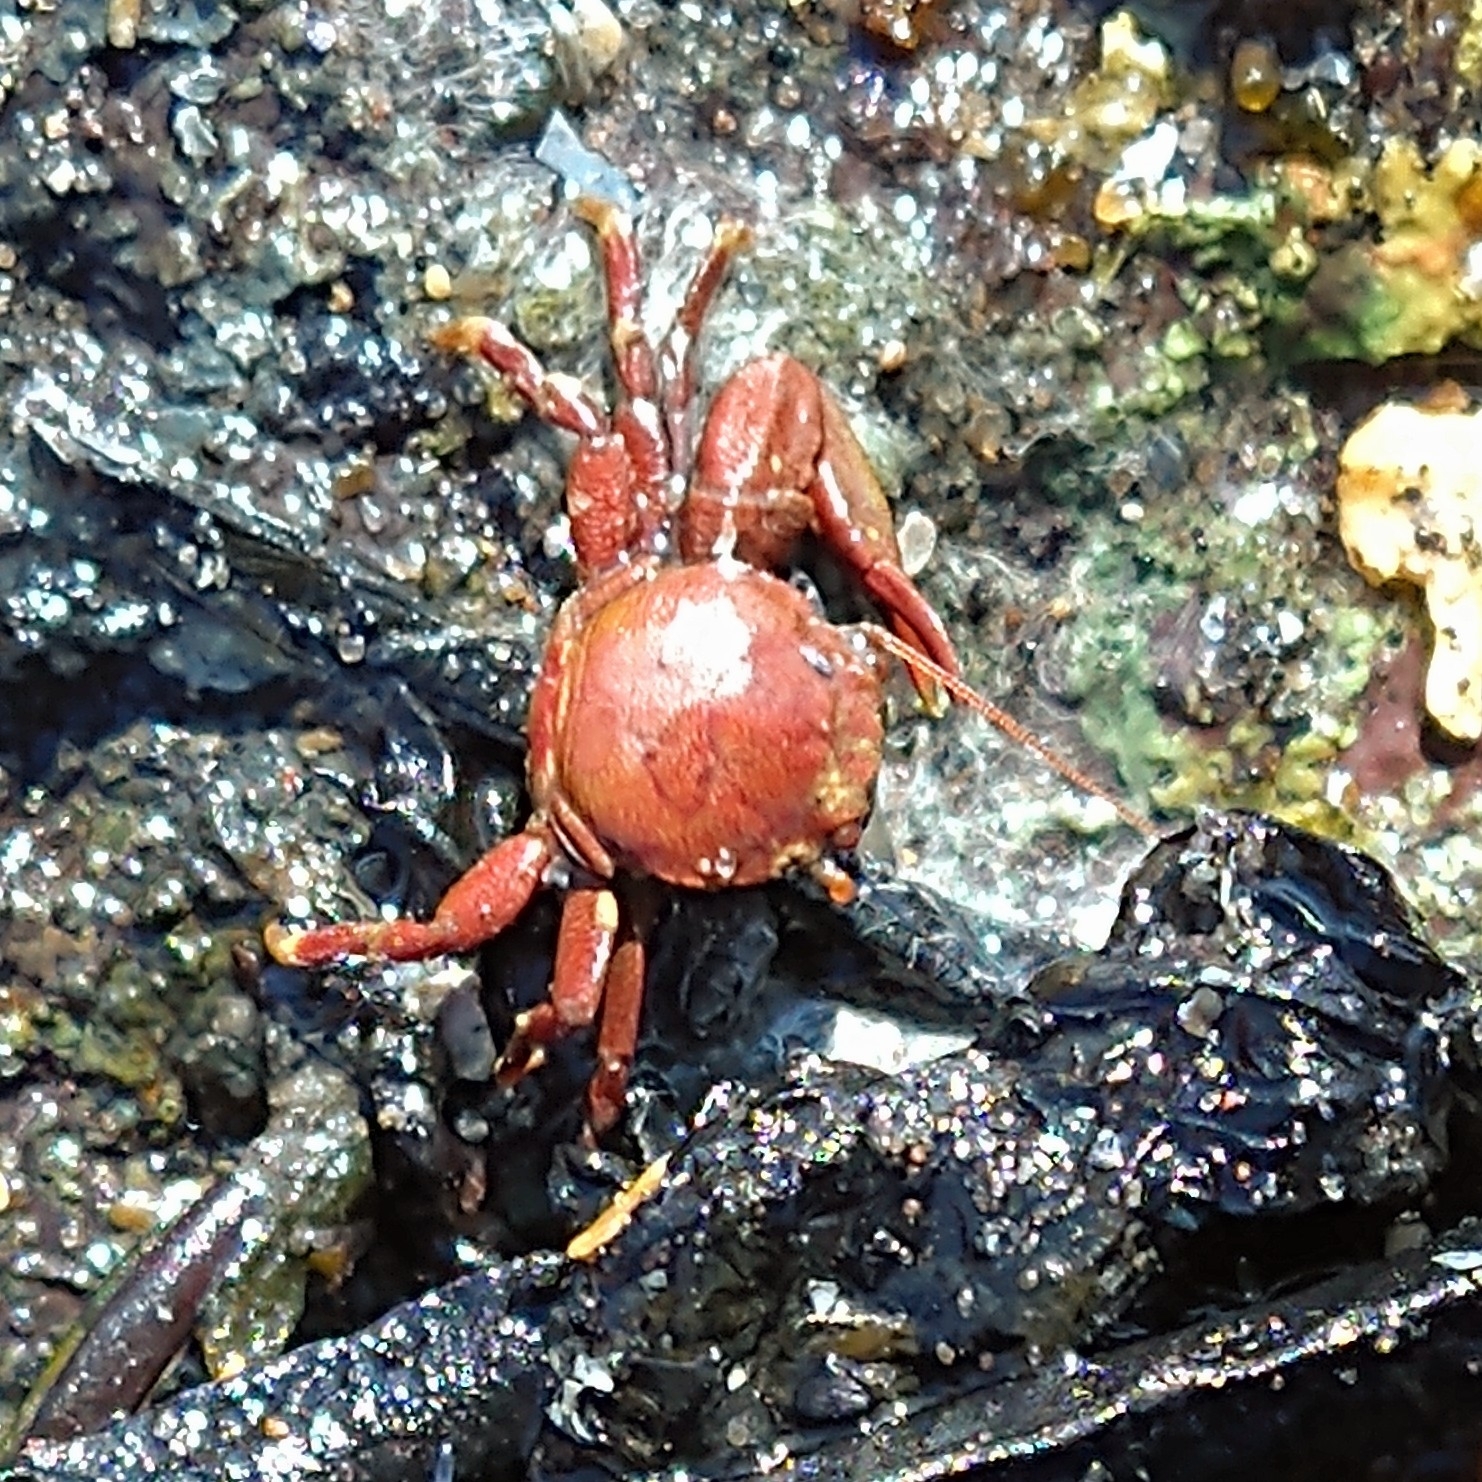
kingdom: Animalia
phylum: Arthropoda
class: Malacostraca
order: Decapoda
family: Porcellanidae
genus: Pisidia
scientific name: Pisidia longicornis
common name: Long clawed porcelain crab
